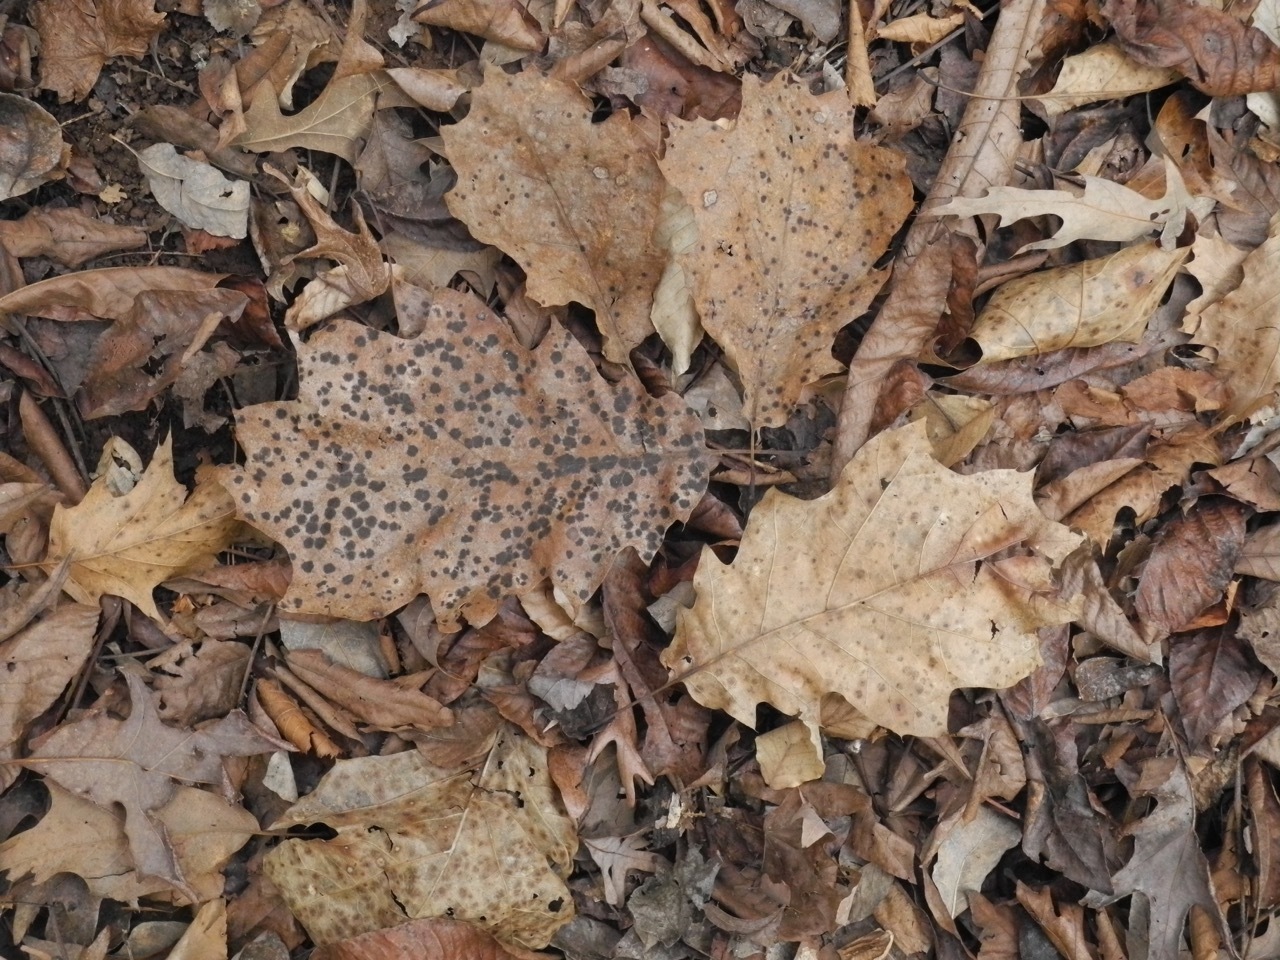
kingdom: Plantae
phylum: Tracheophyta
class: Magnoliopsida
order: Fagales
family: Fagaceae
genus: Quercus
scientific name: Quercus rubra
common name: Red oak
